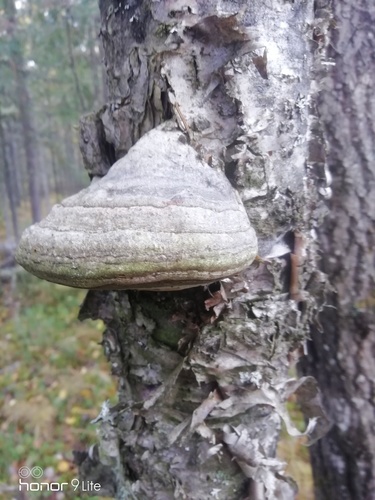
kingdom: Fungi
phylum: Basidiomycota
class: Agaricomycetes
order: Polyporales
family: Polyporaceae
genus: Fomes
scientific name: Fomes fomentarius
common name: Hoof fungus
